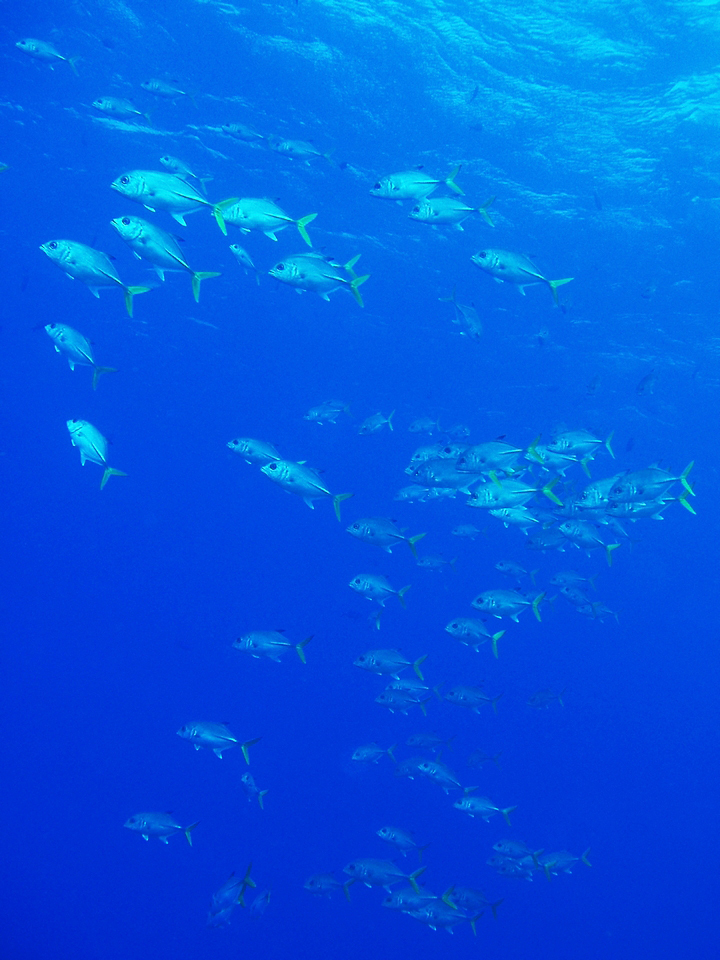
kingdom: Animalia
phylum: Chordata
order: Perciformes
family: Carangidae
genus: Caranx
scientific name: Caranx latus
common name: Horse eye jack
